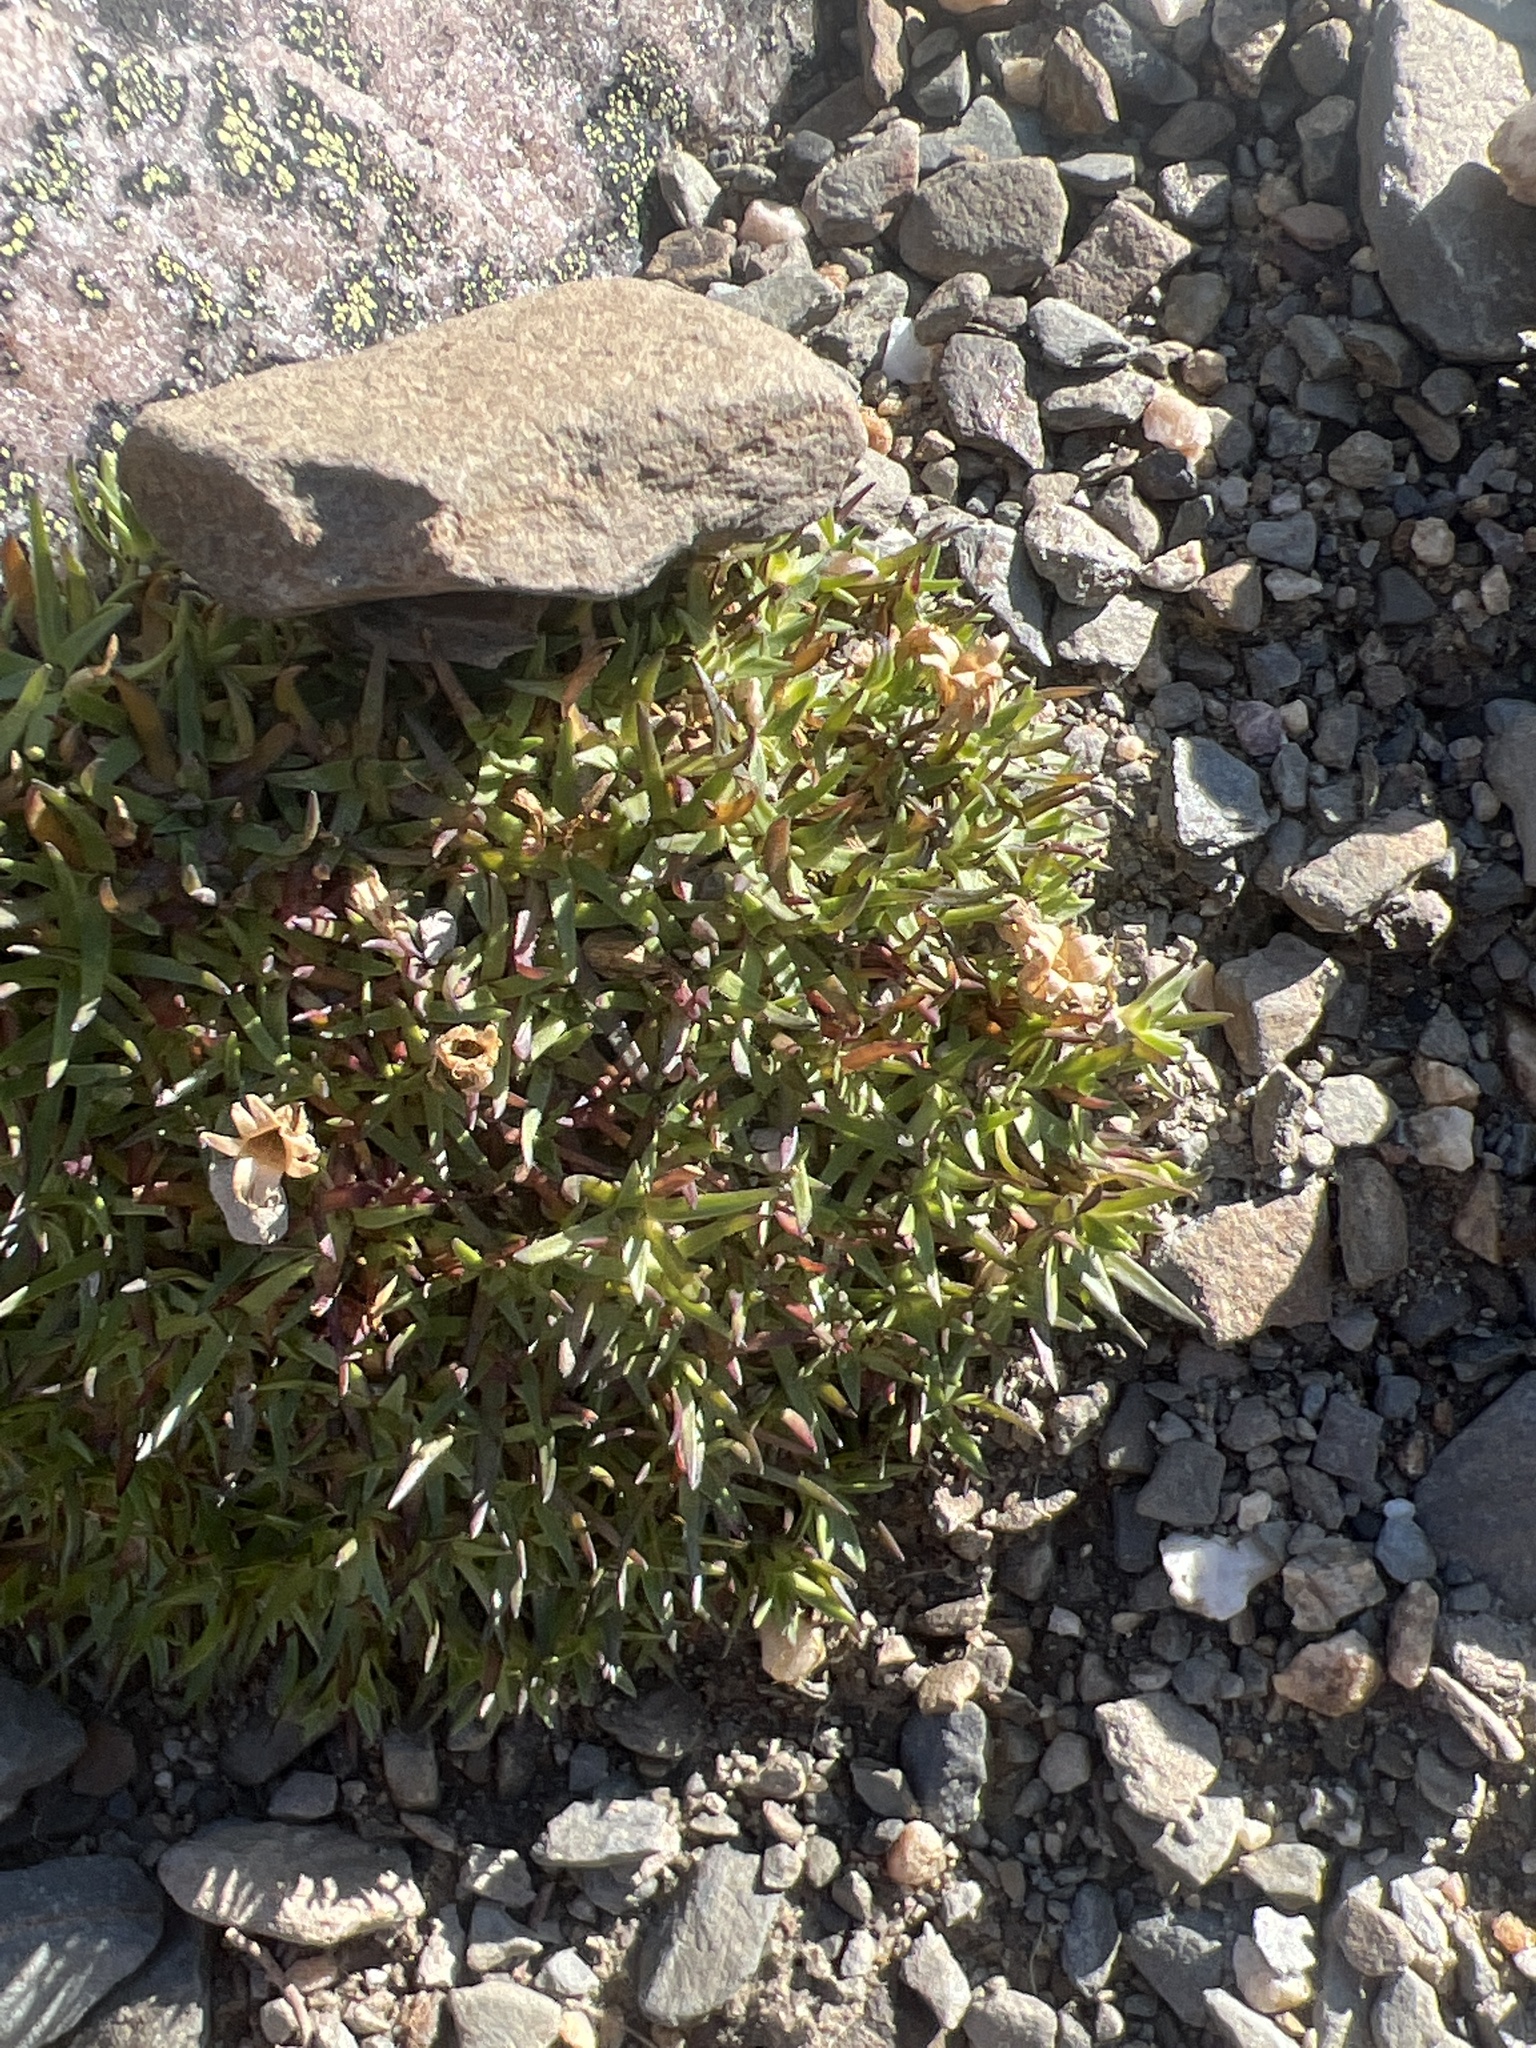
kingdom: Plantae
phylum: Tracheophyta
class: Magnoliopsida
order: Caryophyllales
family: Caryophyllaceae
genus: Silene
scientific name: Silene acaulis
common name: Moss campion
